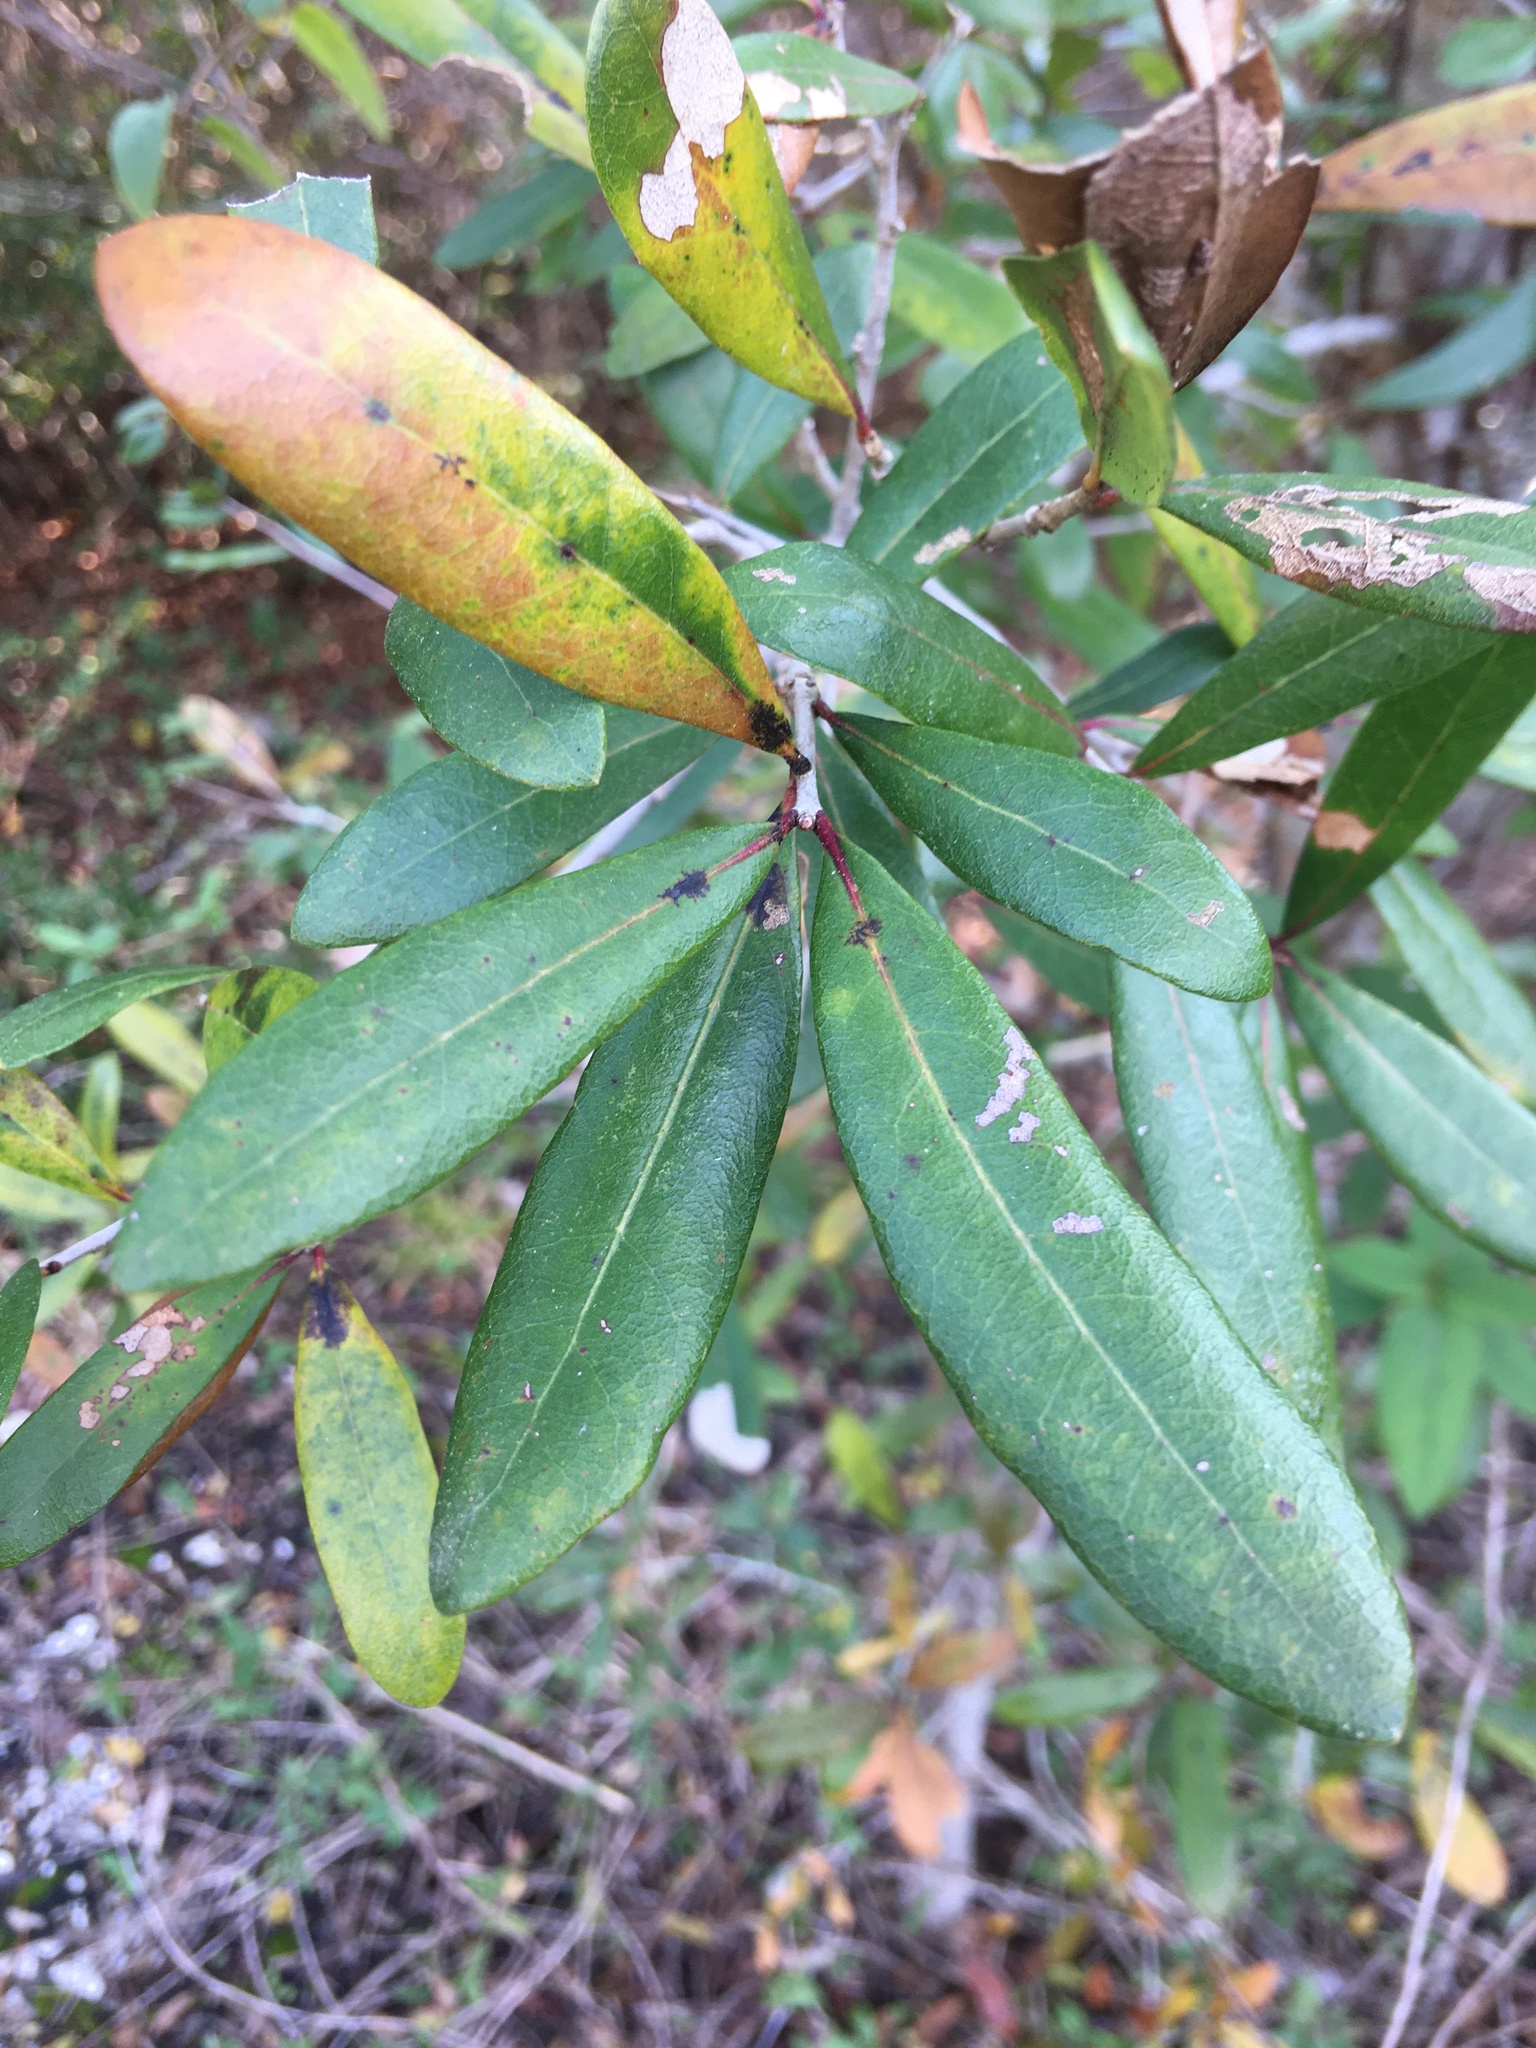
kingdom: Plantae
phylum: Tracheophyta
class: Magnoliopsida
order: Fagales
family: Fagaceae
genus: Quercus
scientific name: Quercus virginiana
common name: Southern live oak
